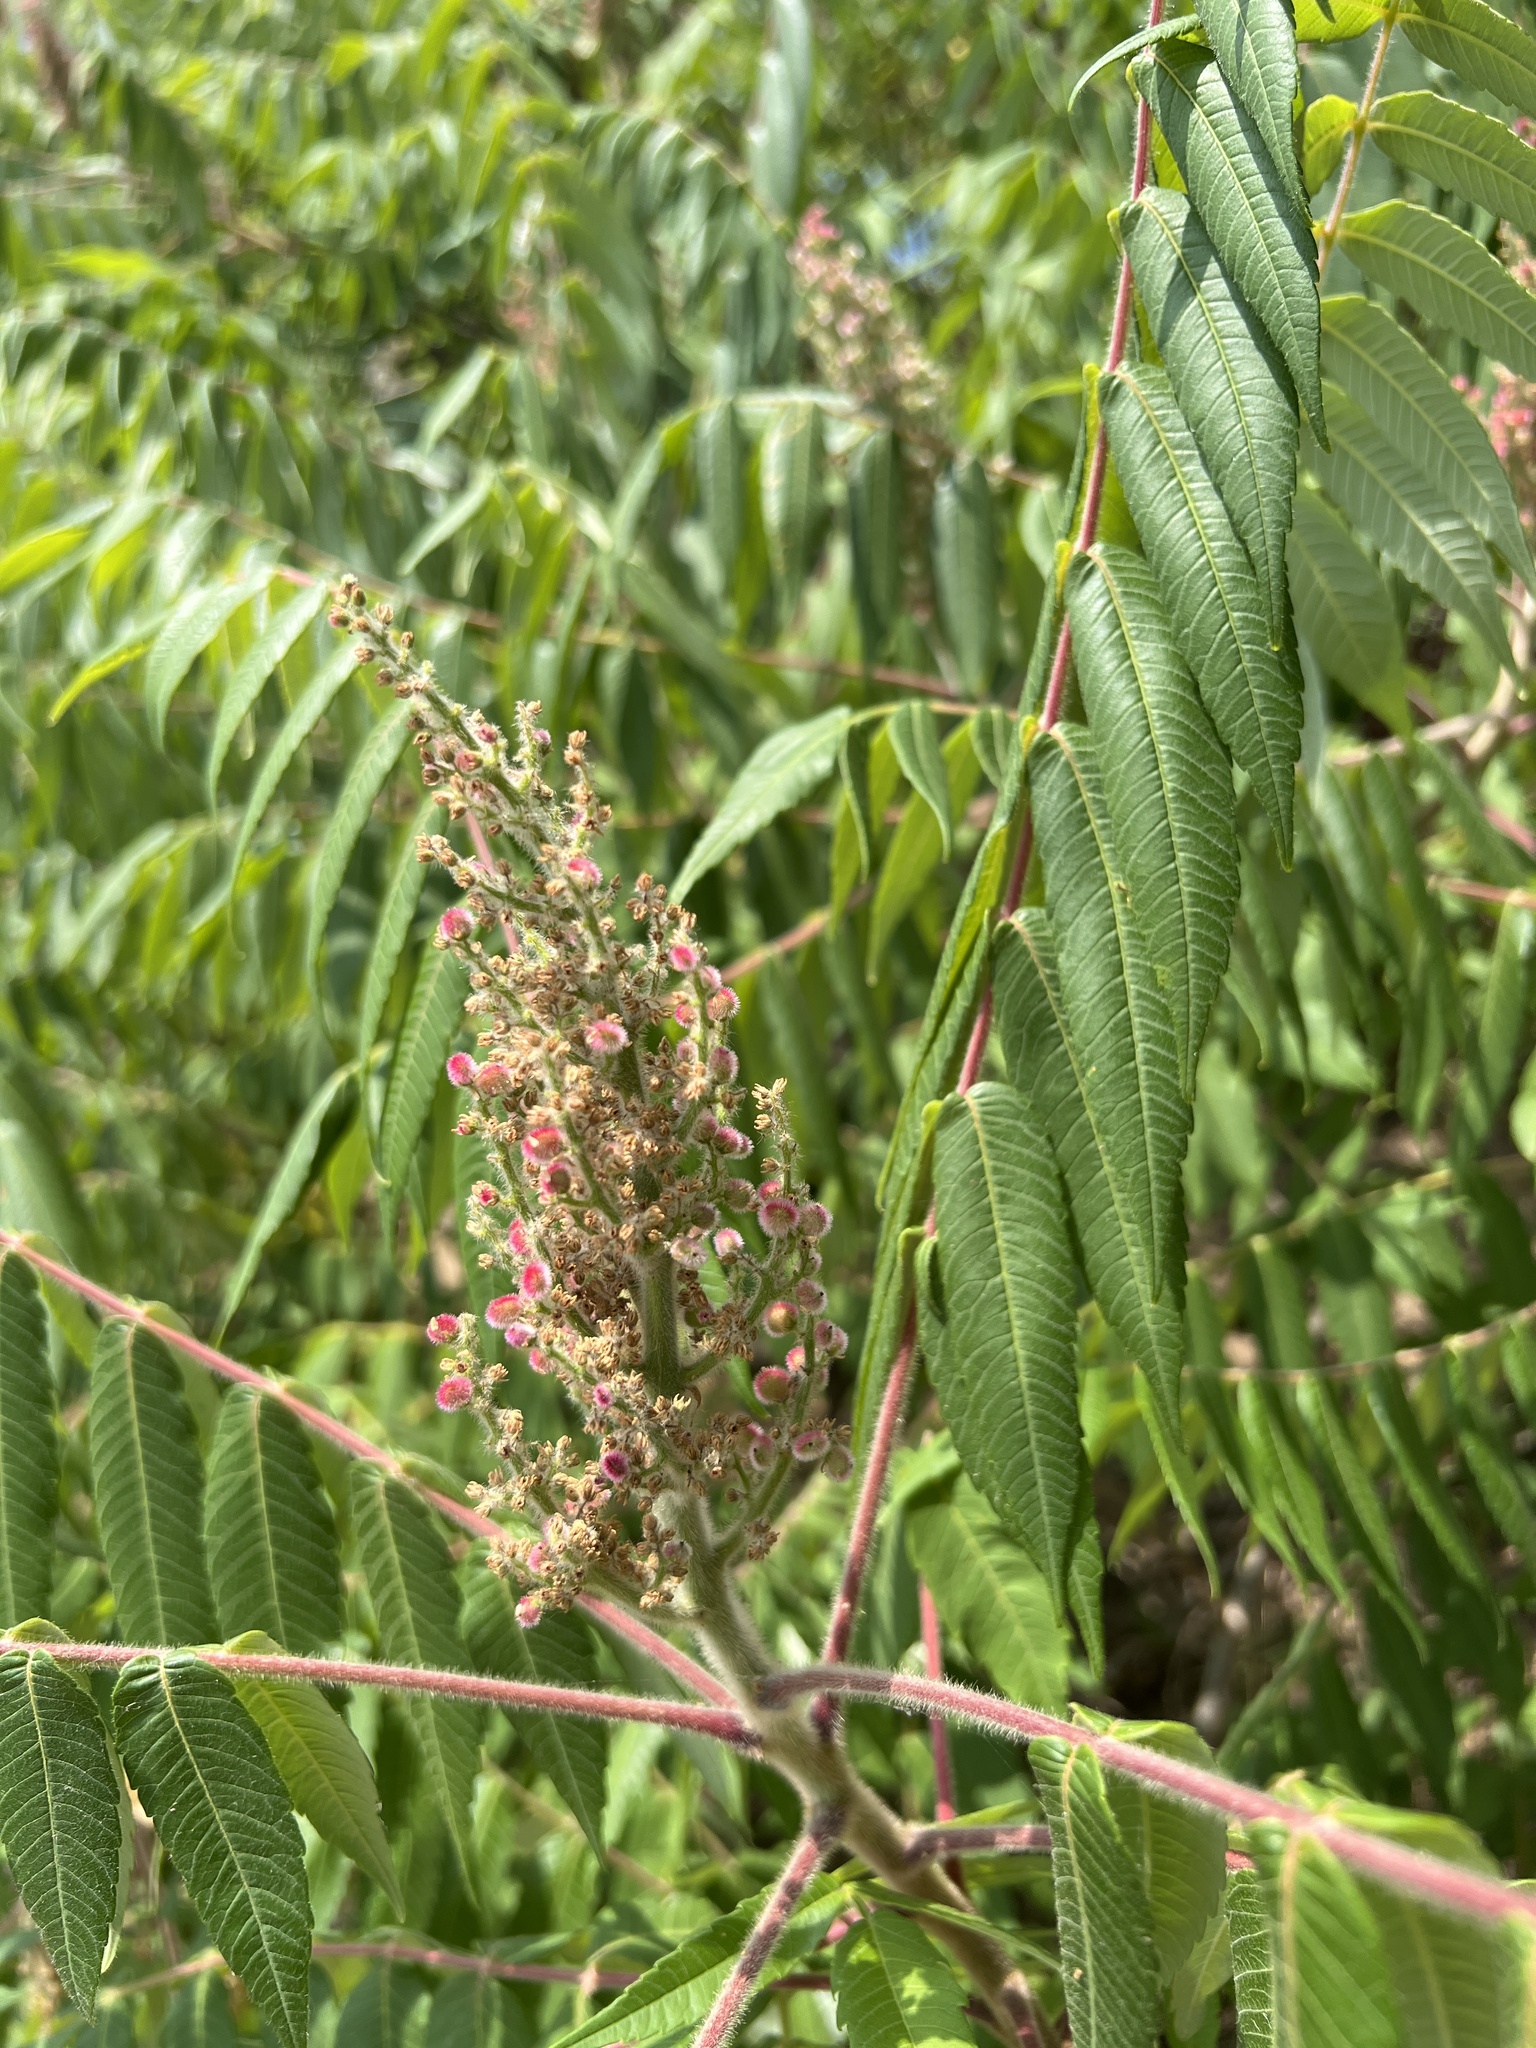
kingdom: Plantae
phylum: Tracheophyta
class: Magnoliopsida
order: Sapindales
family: Anacardiaceae
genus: Rhus
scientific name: Rhus typhina
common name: Staghorn sumac
